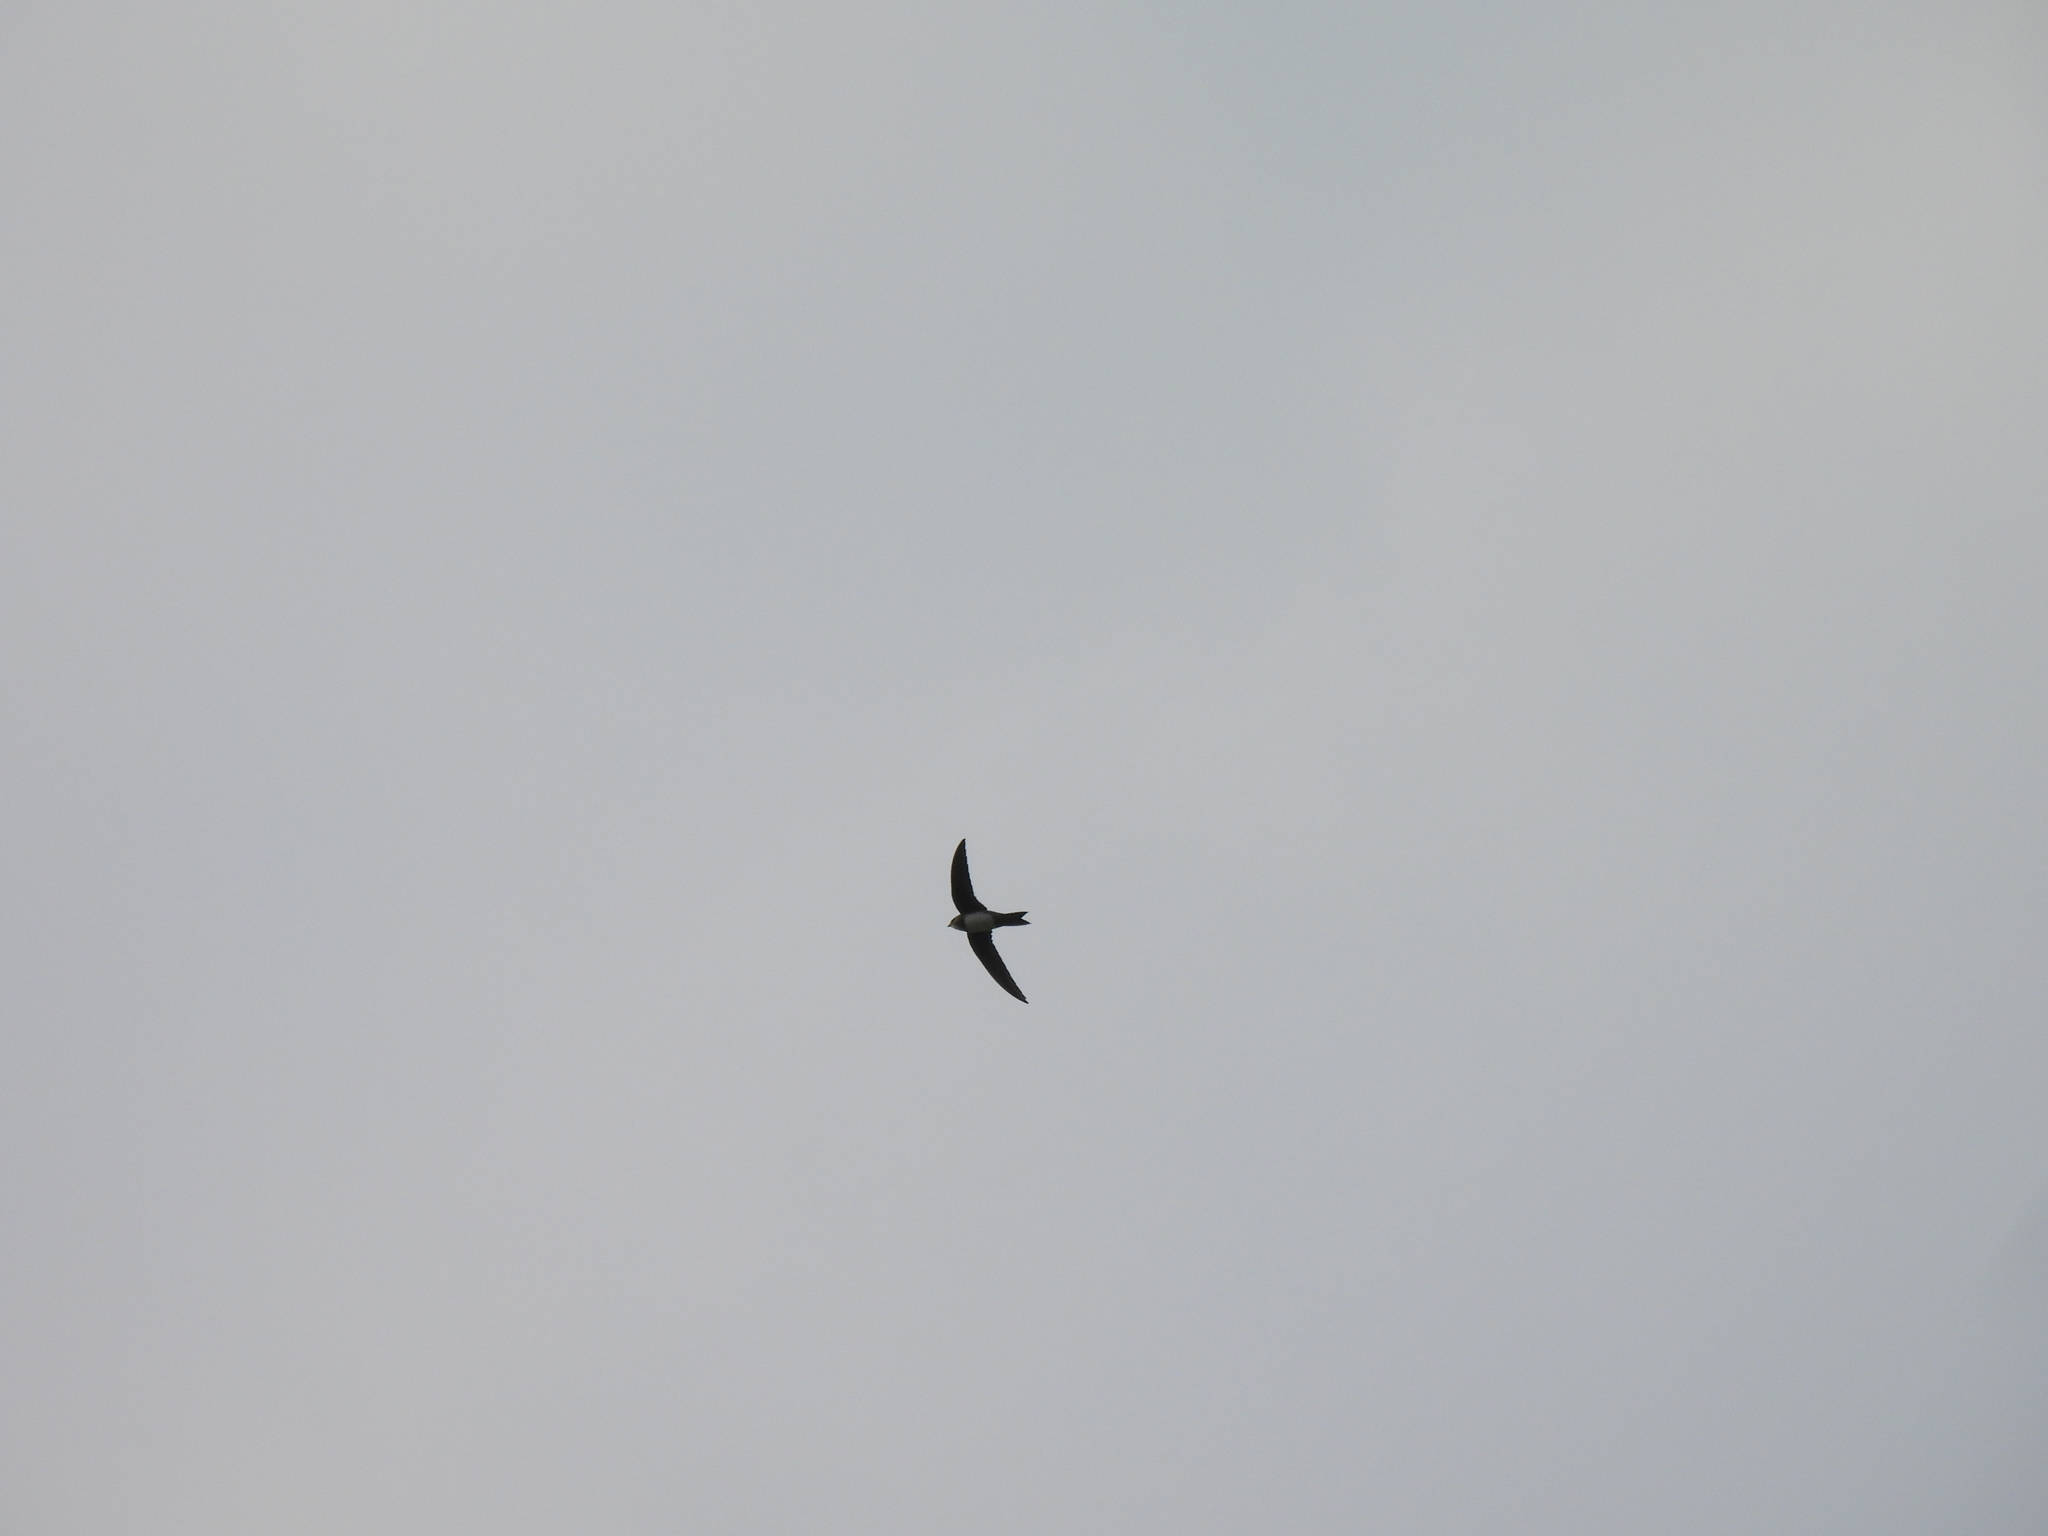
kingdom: Animalia
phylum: Chordata
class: Aves
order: Apodiformes
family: Apodidae
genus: Tachymarptis
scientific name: Tachymarptis melba
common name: Alpine swift
